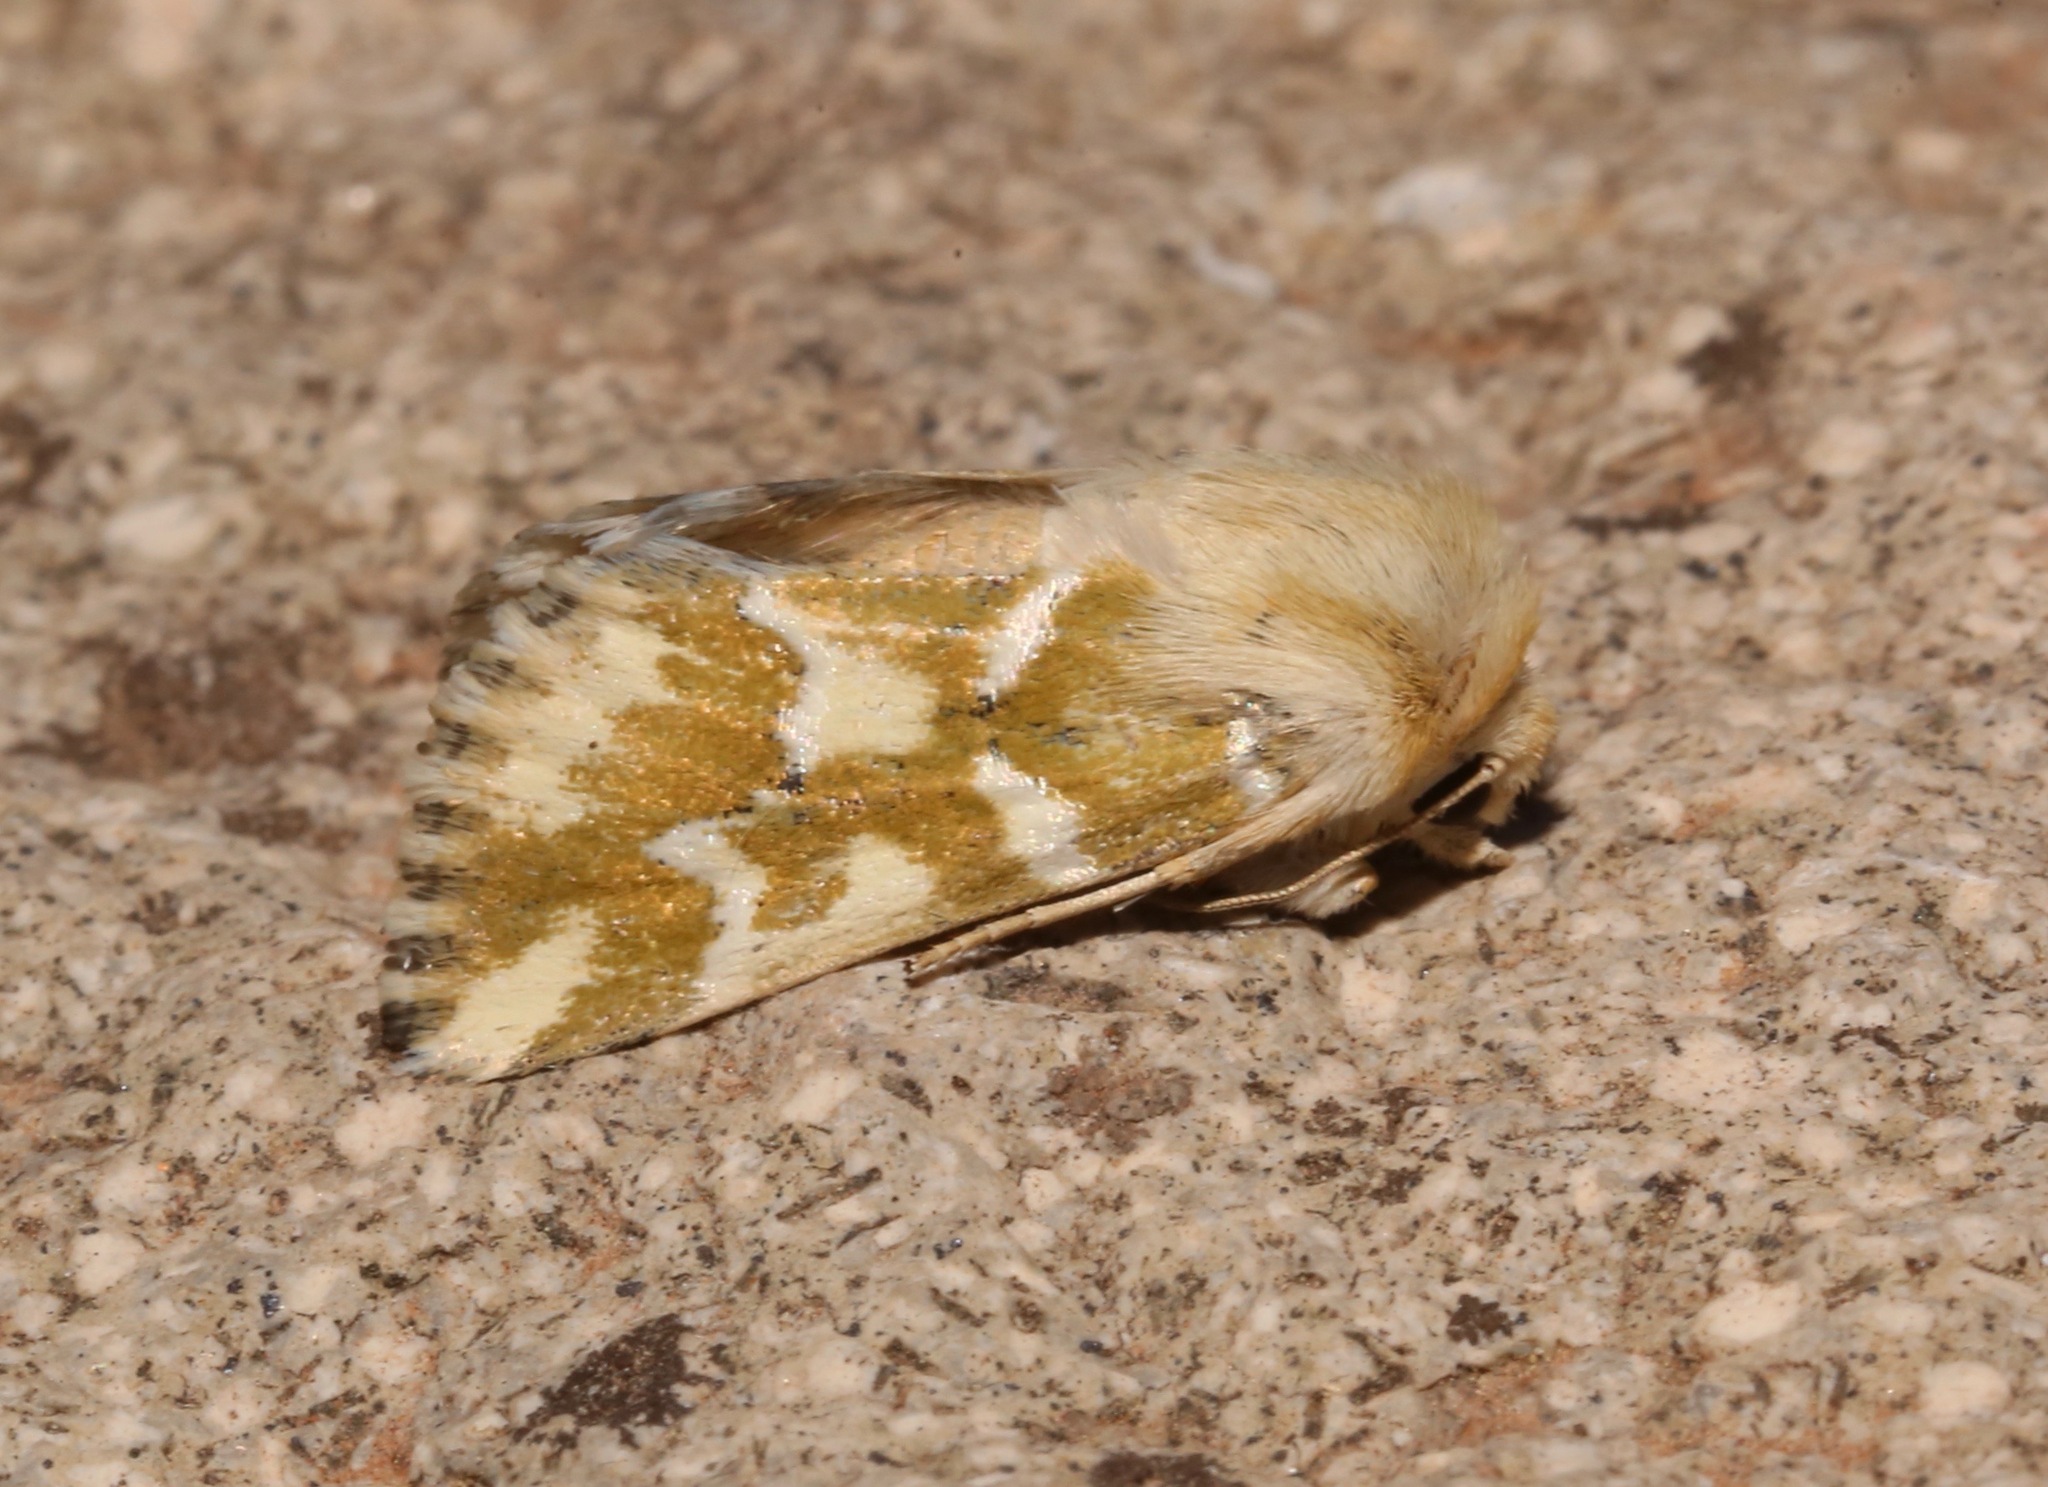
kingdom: Animalia
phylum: Arthropoda
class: Insecta
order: Lepidoptera
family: Noctuidae
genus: Schinia
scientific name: Schinia meadi
